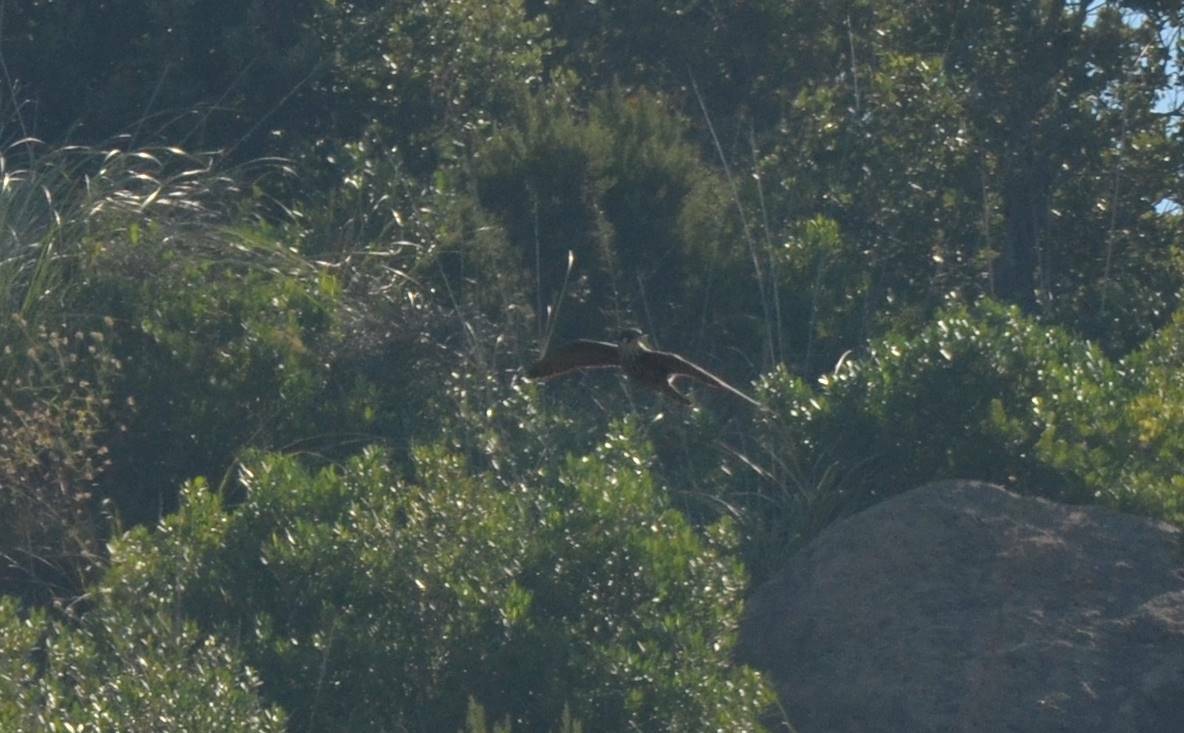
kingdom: Animalia
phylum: Chordata
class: Aves
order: Falconiformes
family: Falconidae
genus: Falco
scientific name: Falco eleonorae
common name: Eleonora's falcon
